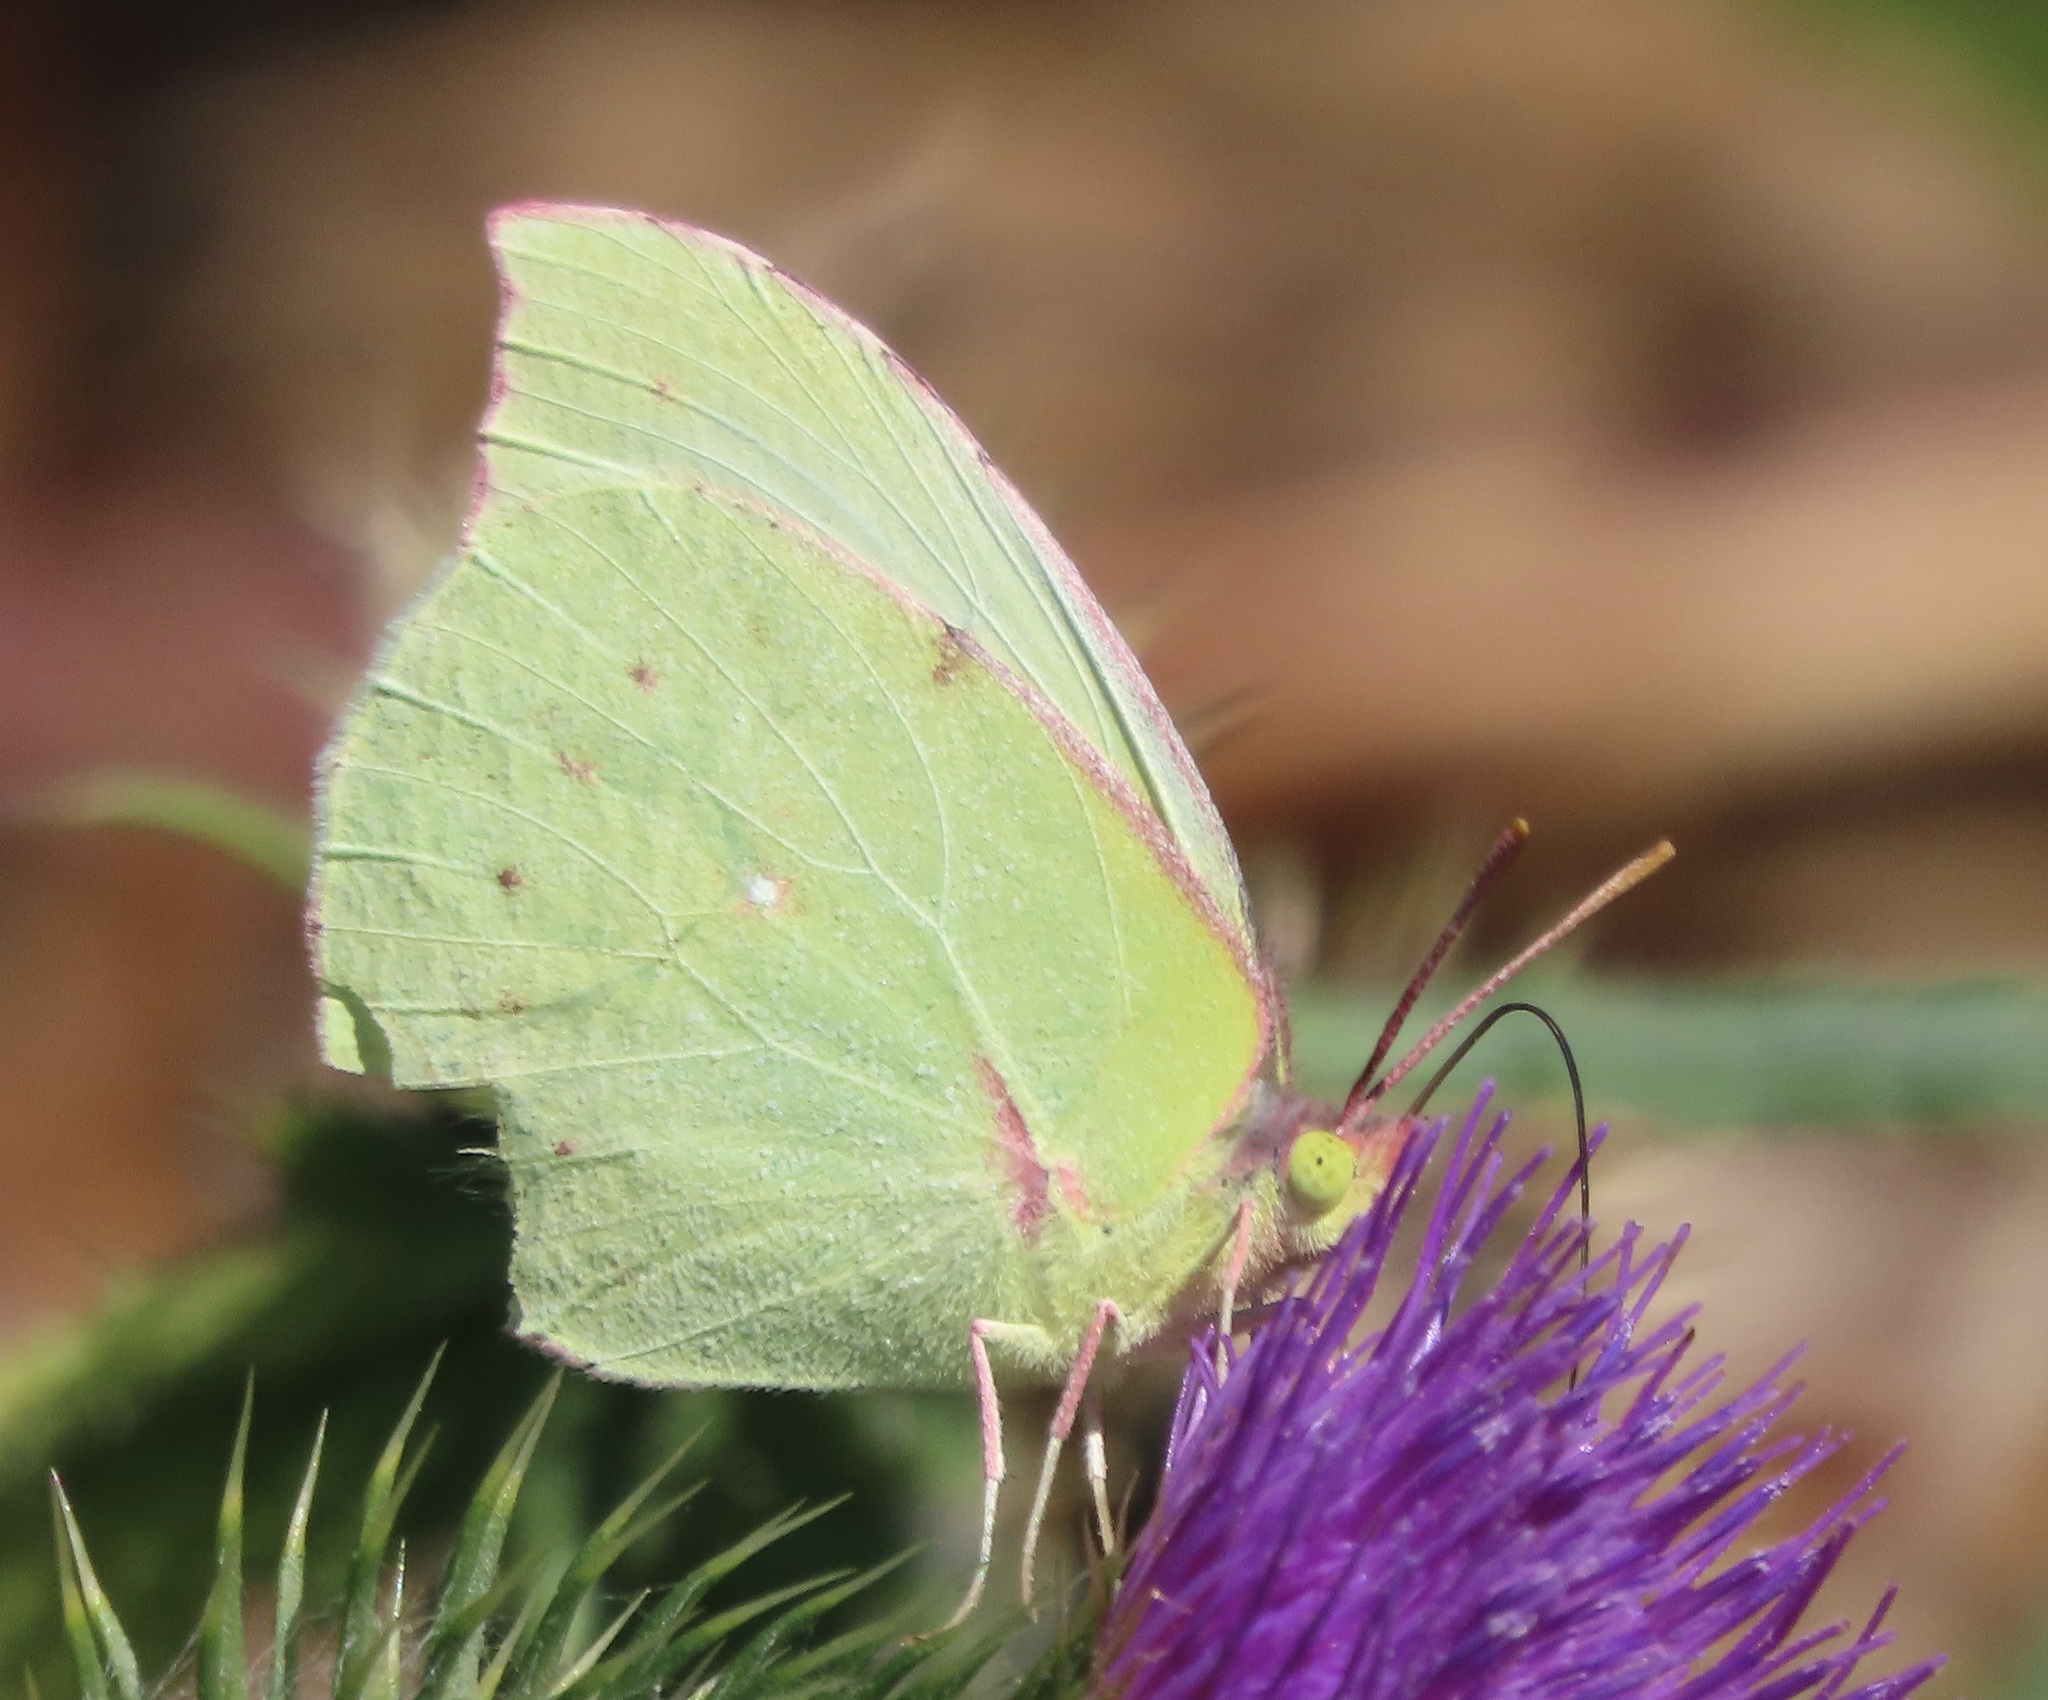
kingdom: Animalia
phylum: Arthropoda
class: Insecta
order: Lepidoptera
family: Pieridae
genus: Zerene
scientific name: Zerene eurydice
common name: California dogface
